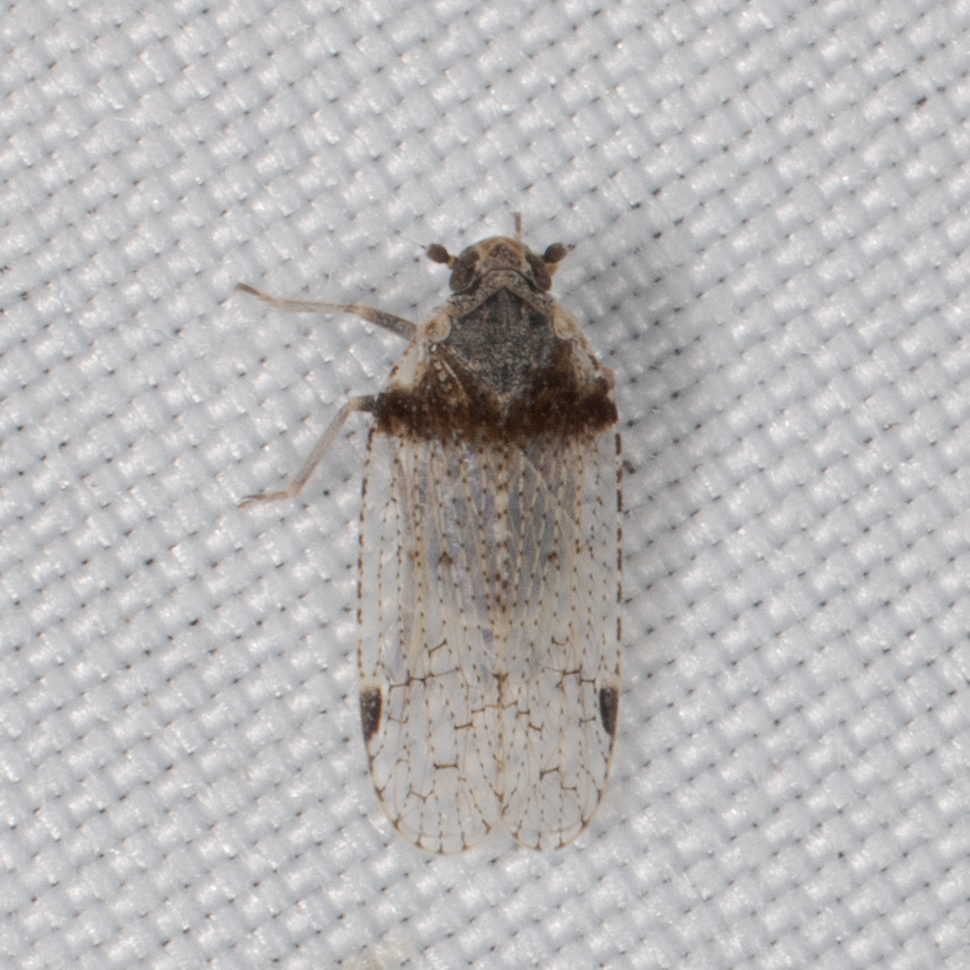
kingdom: Animalia
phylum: Arthropoda
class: Insecta
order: Hemiptera
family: Cixiidae
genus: Cixius
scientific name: Cixius stigmatus
